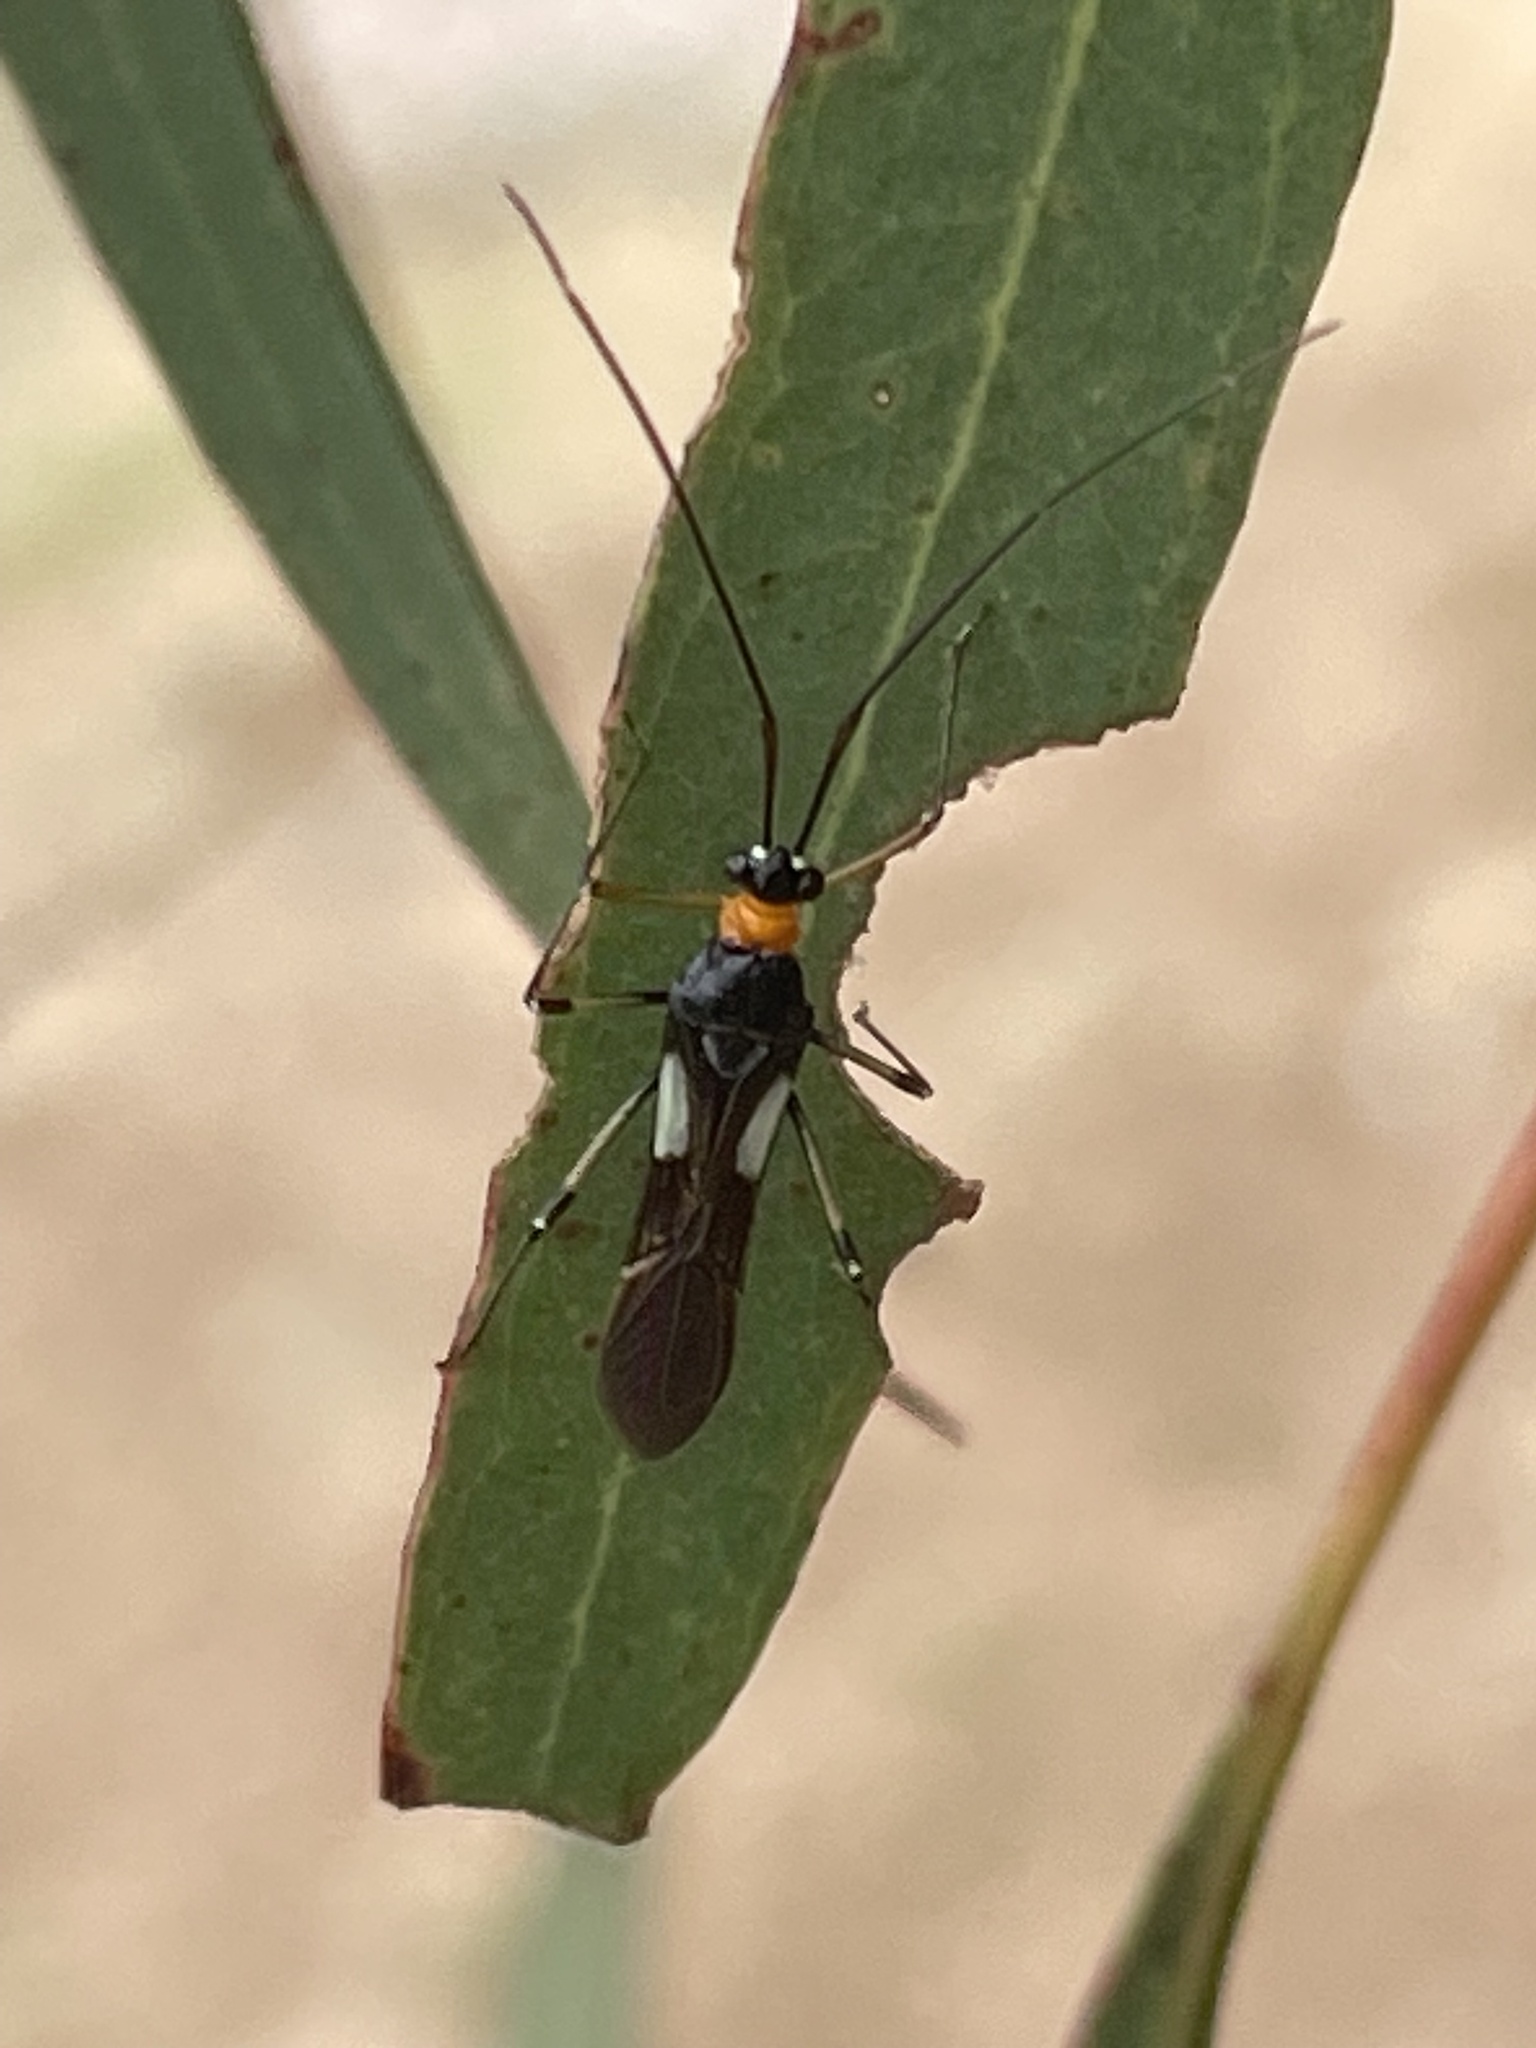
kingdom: Animalia
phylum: Arthropoda
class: Insecta
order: Hemiptera
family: Miridae
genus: Rayieria
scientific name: Rayieria basifer
